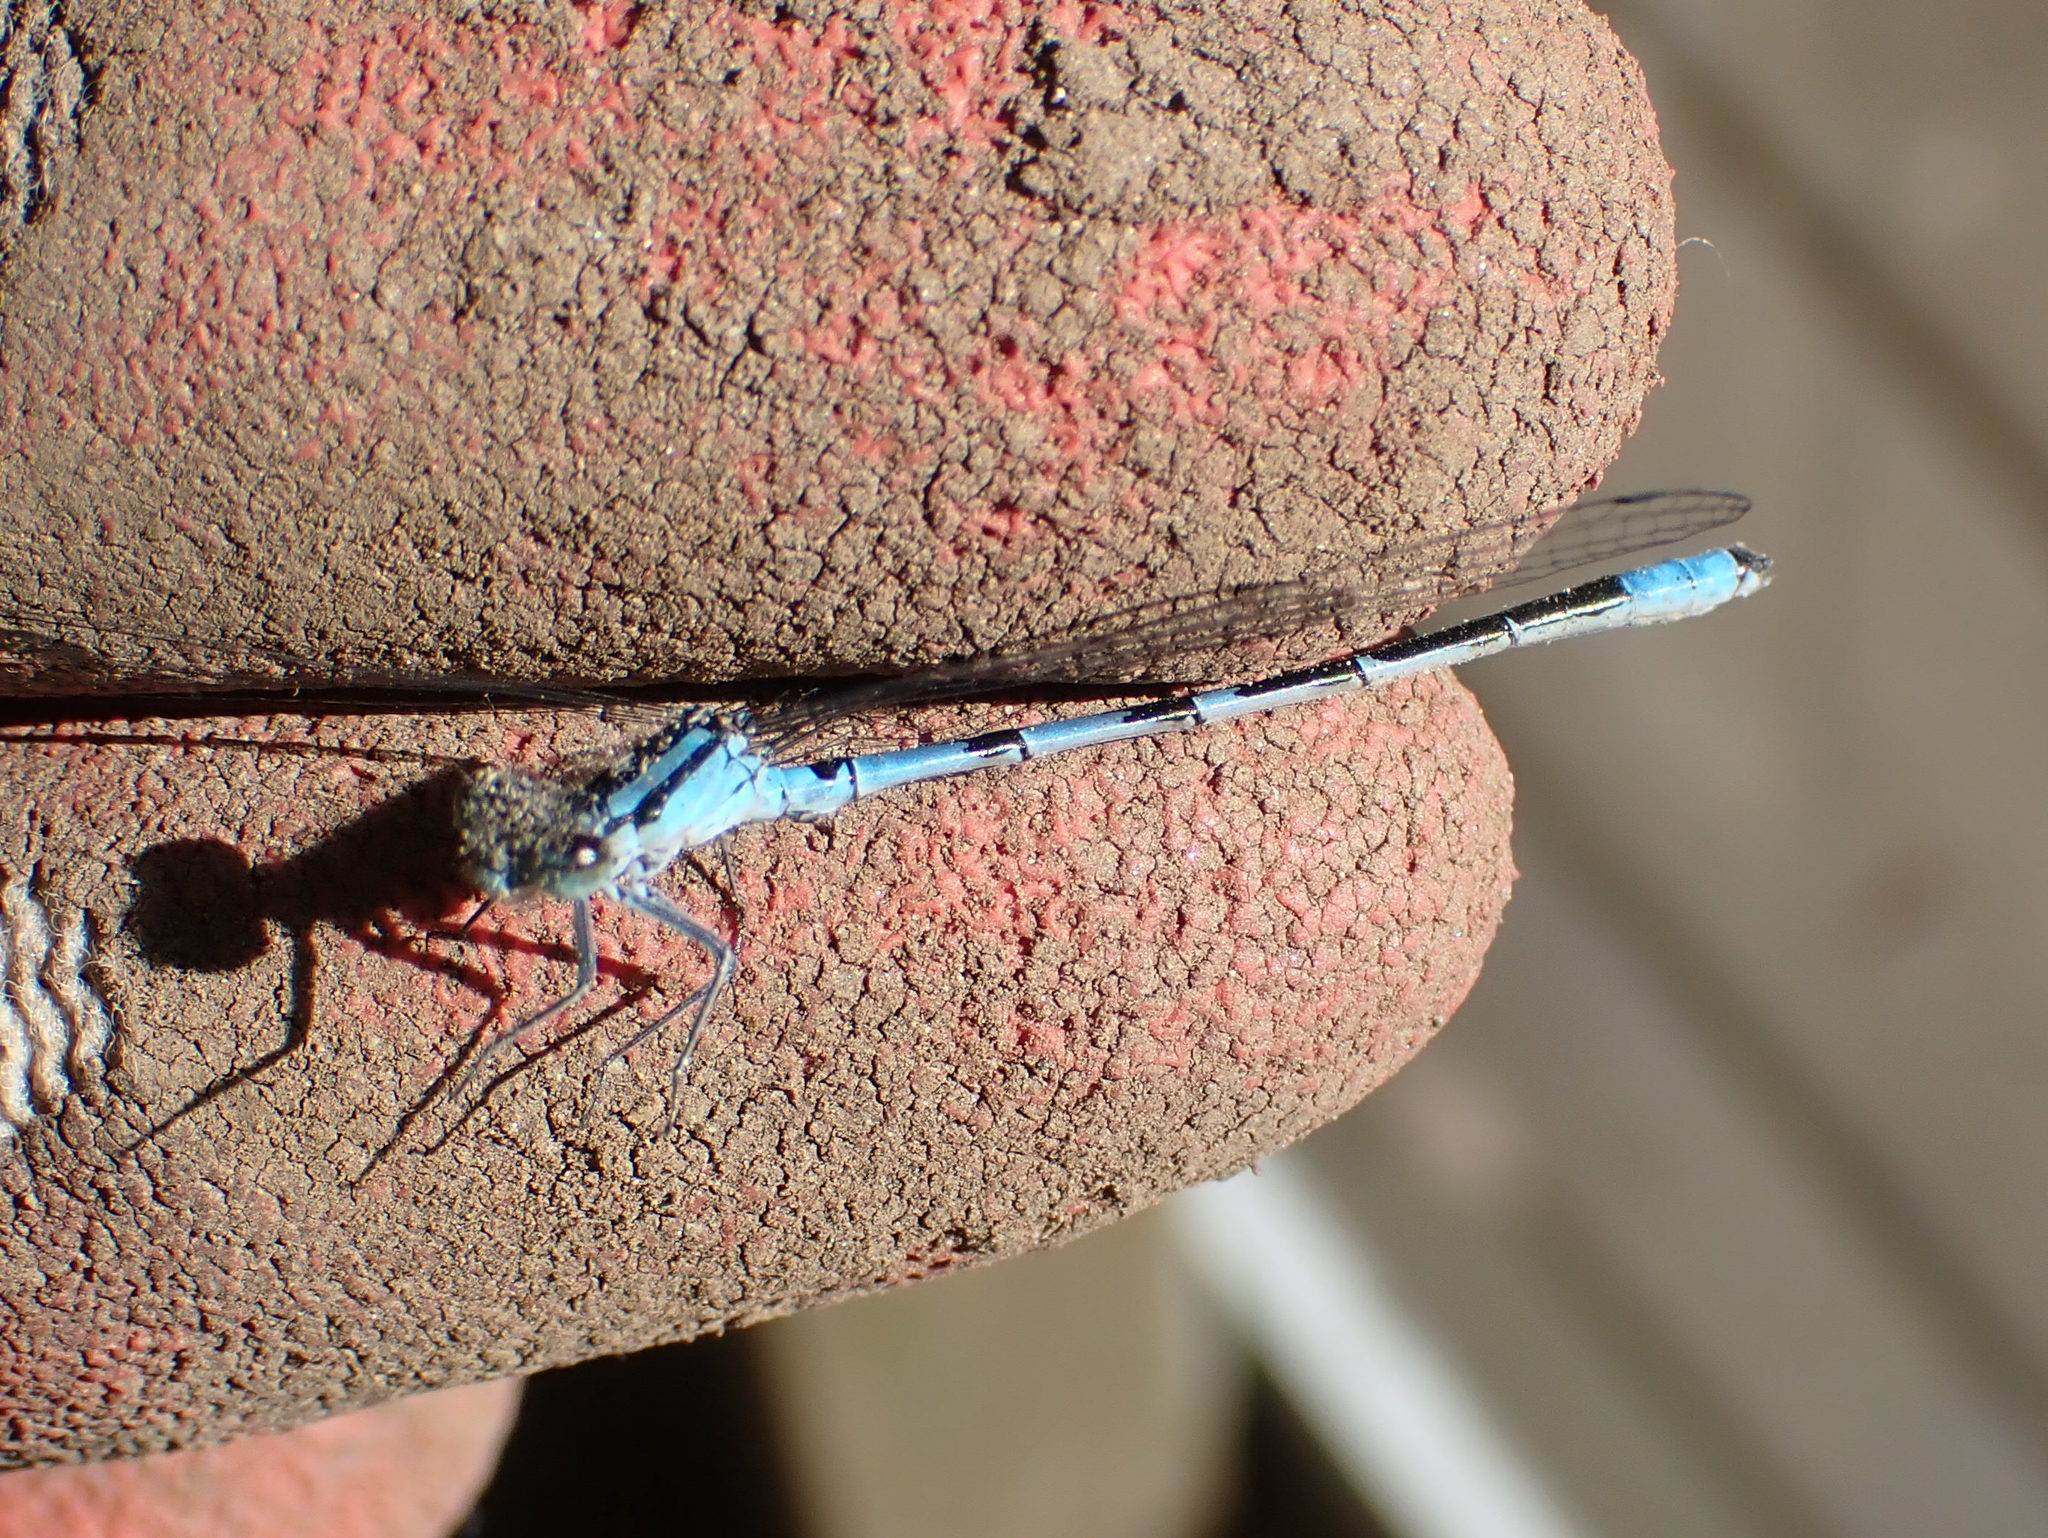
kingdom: Animalia
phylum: Arthropoda
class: Insecta
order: Odonata
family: Coenagrionidae
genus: Enallagma
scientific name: Enallagma ebrium
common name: Marsh bluet
